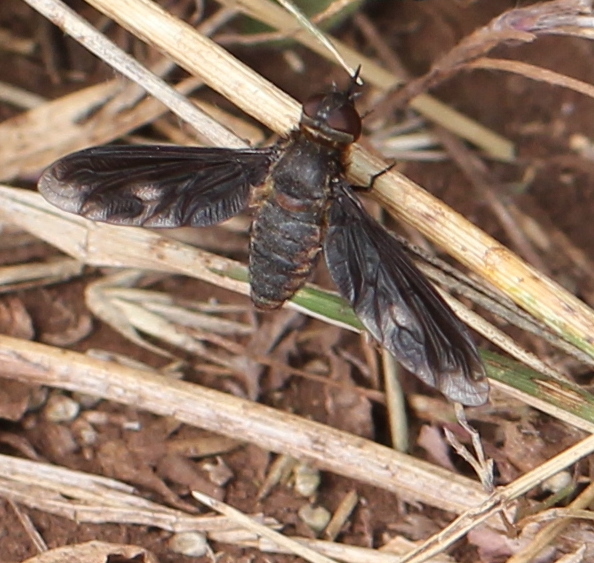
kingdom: Animalia
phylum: Arthropoda
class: Insecta
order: Diptera
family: Bombyliidae
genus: Heteralonia
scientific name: Heteralonia megerlei
